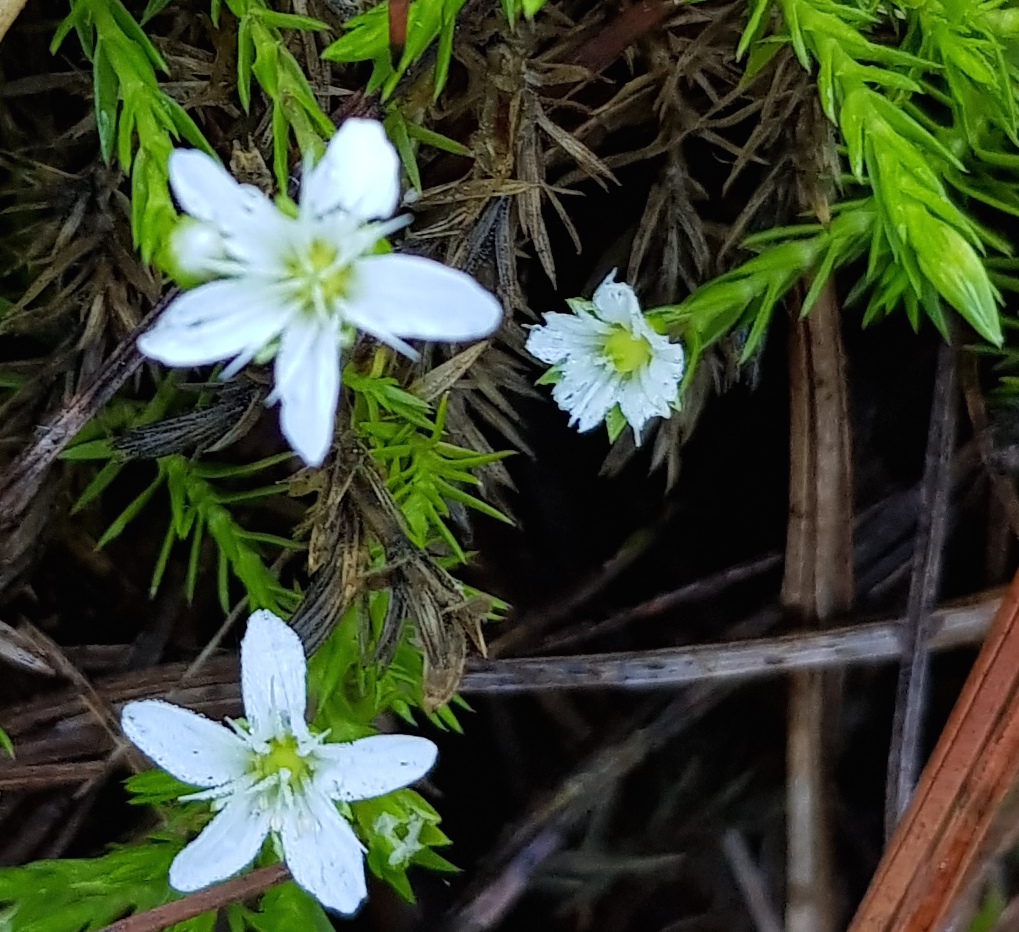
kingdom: Plantae
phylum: Tracheophyta
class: Magnoliopsida
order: Caryophyllales
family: Caryophyllaceae
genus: Arenaria
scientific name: Arenaria lycopodioides
